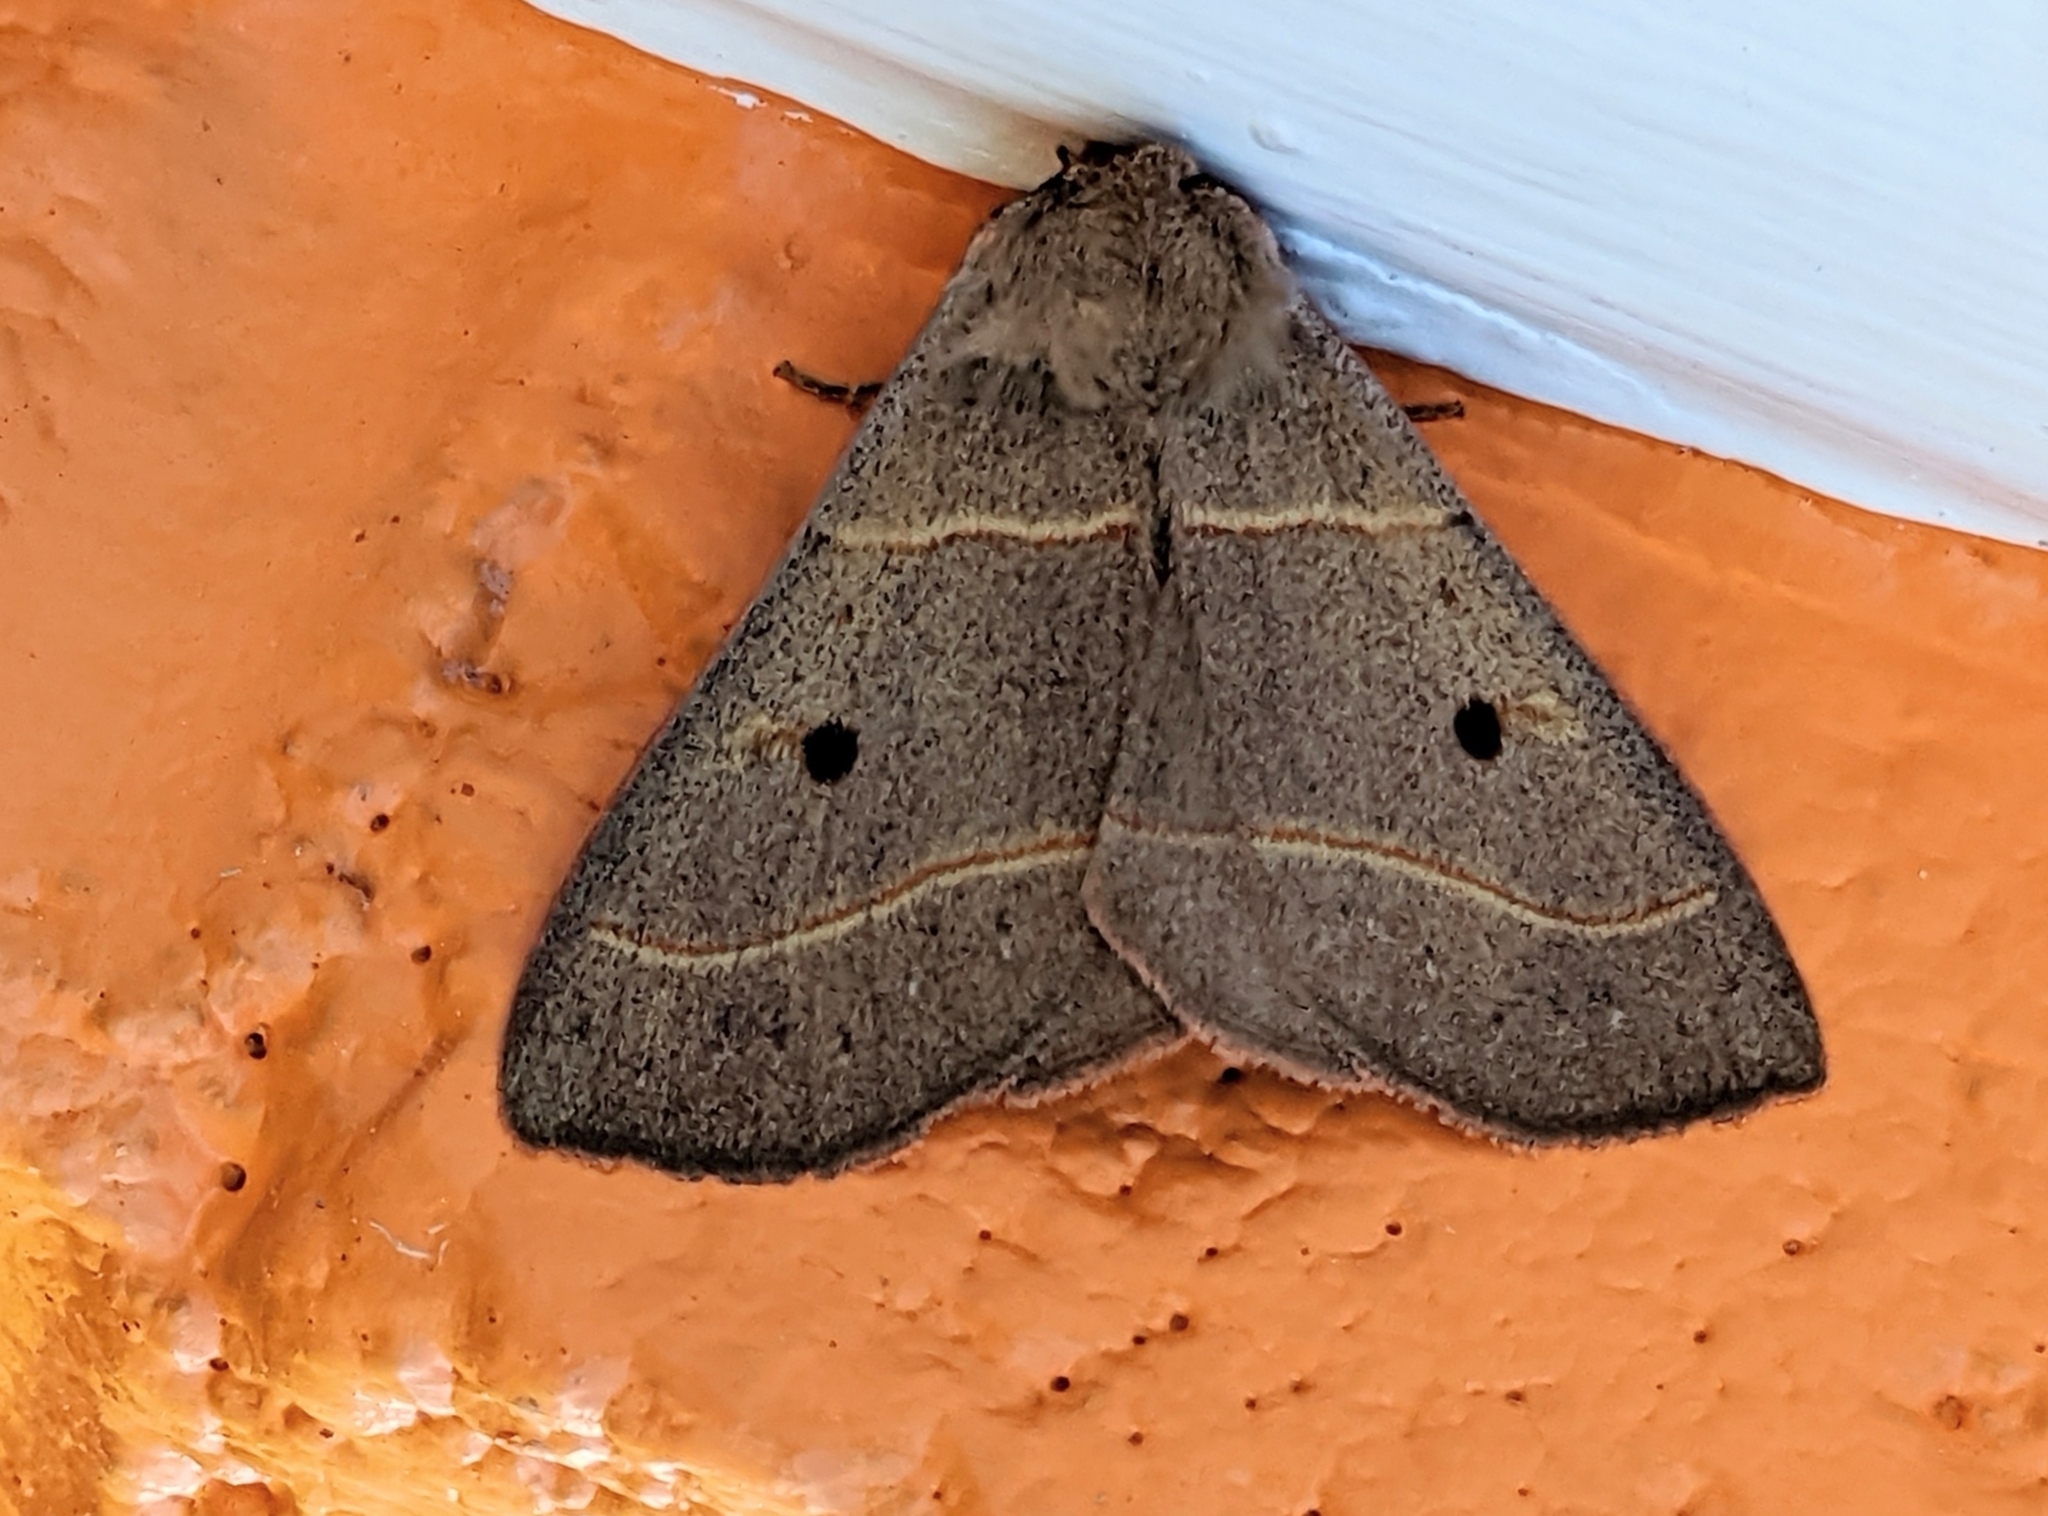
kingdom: Animalia
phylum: Arthropoda
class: Insecta
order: Lepidoptera
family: Erebidae
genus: Panopoda
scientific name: Panopoda rufimargo
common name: Red-lined panopoda moth
